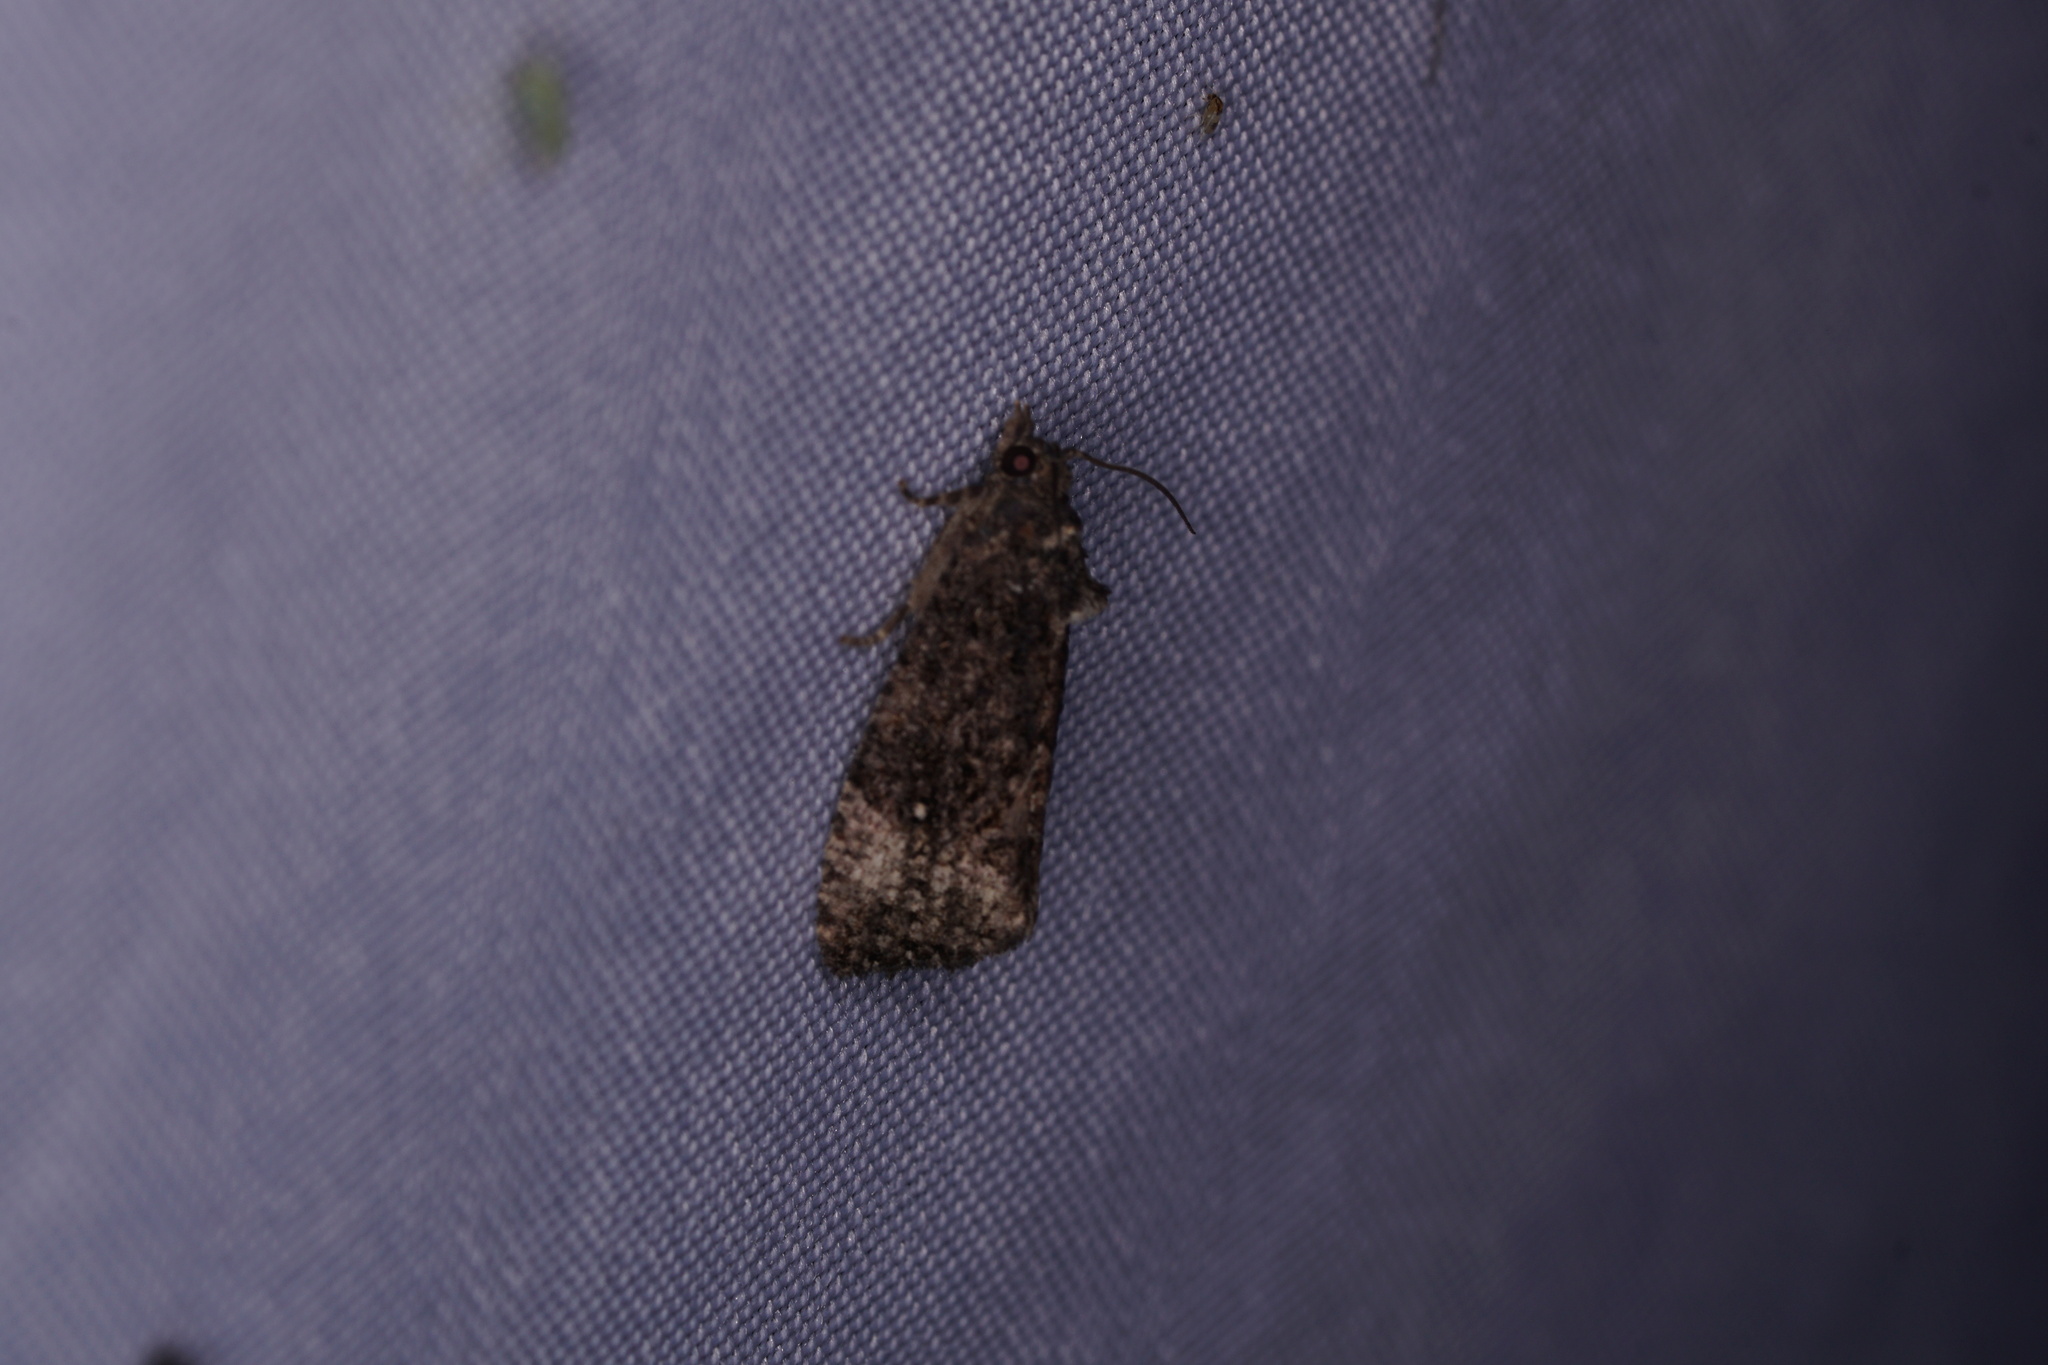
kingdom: Animalia
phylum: Arthropoda
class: Insecta
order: Lepidoptera
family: Tortricidae
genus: Gymnandrosoma
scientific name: Gymnandrosoma punctidiscanum
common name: Dotted ecdytolopha moth
